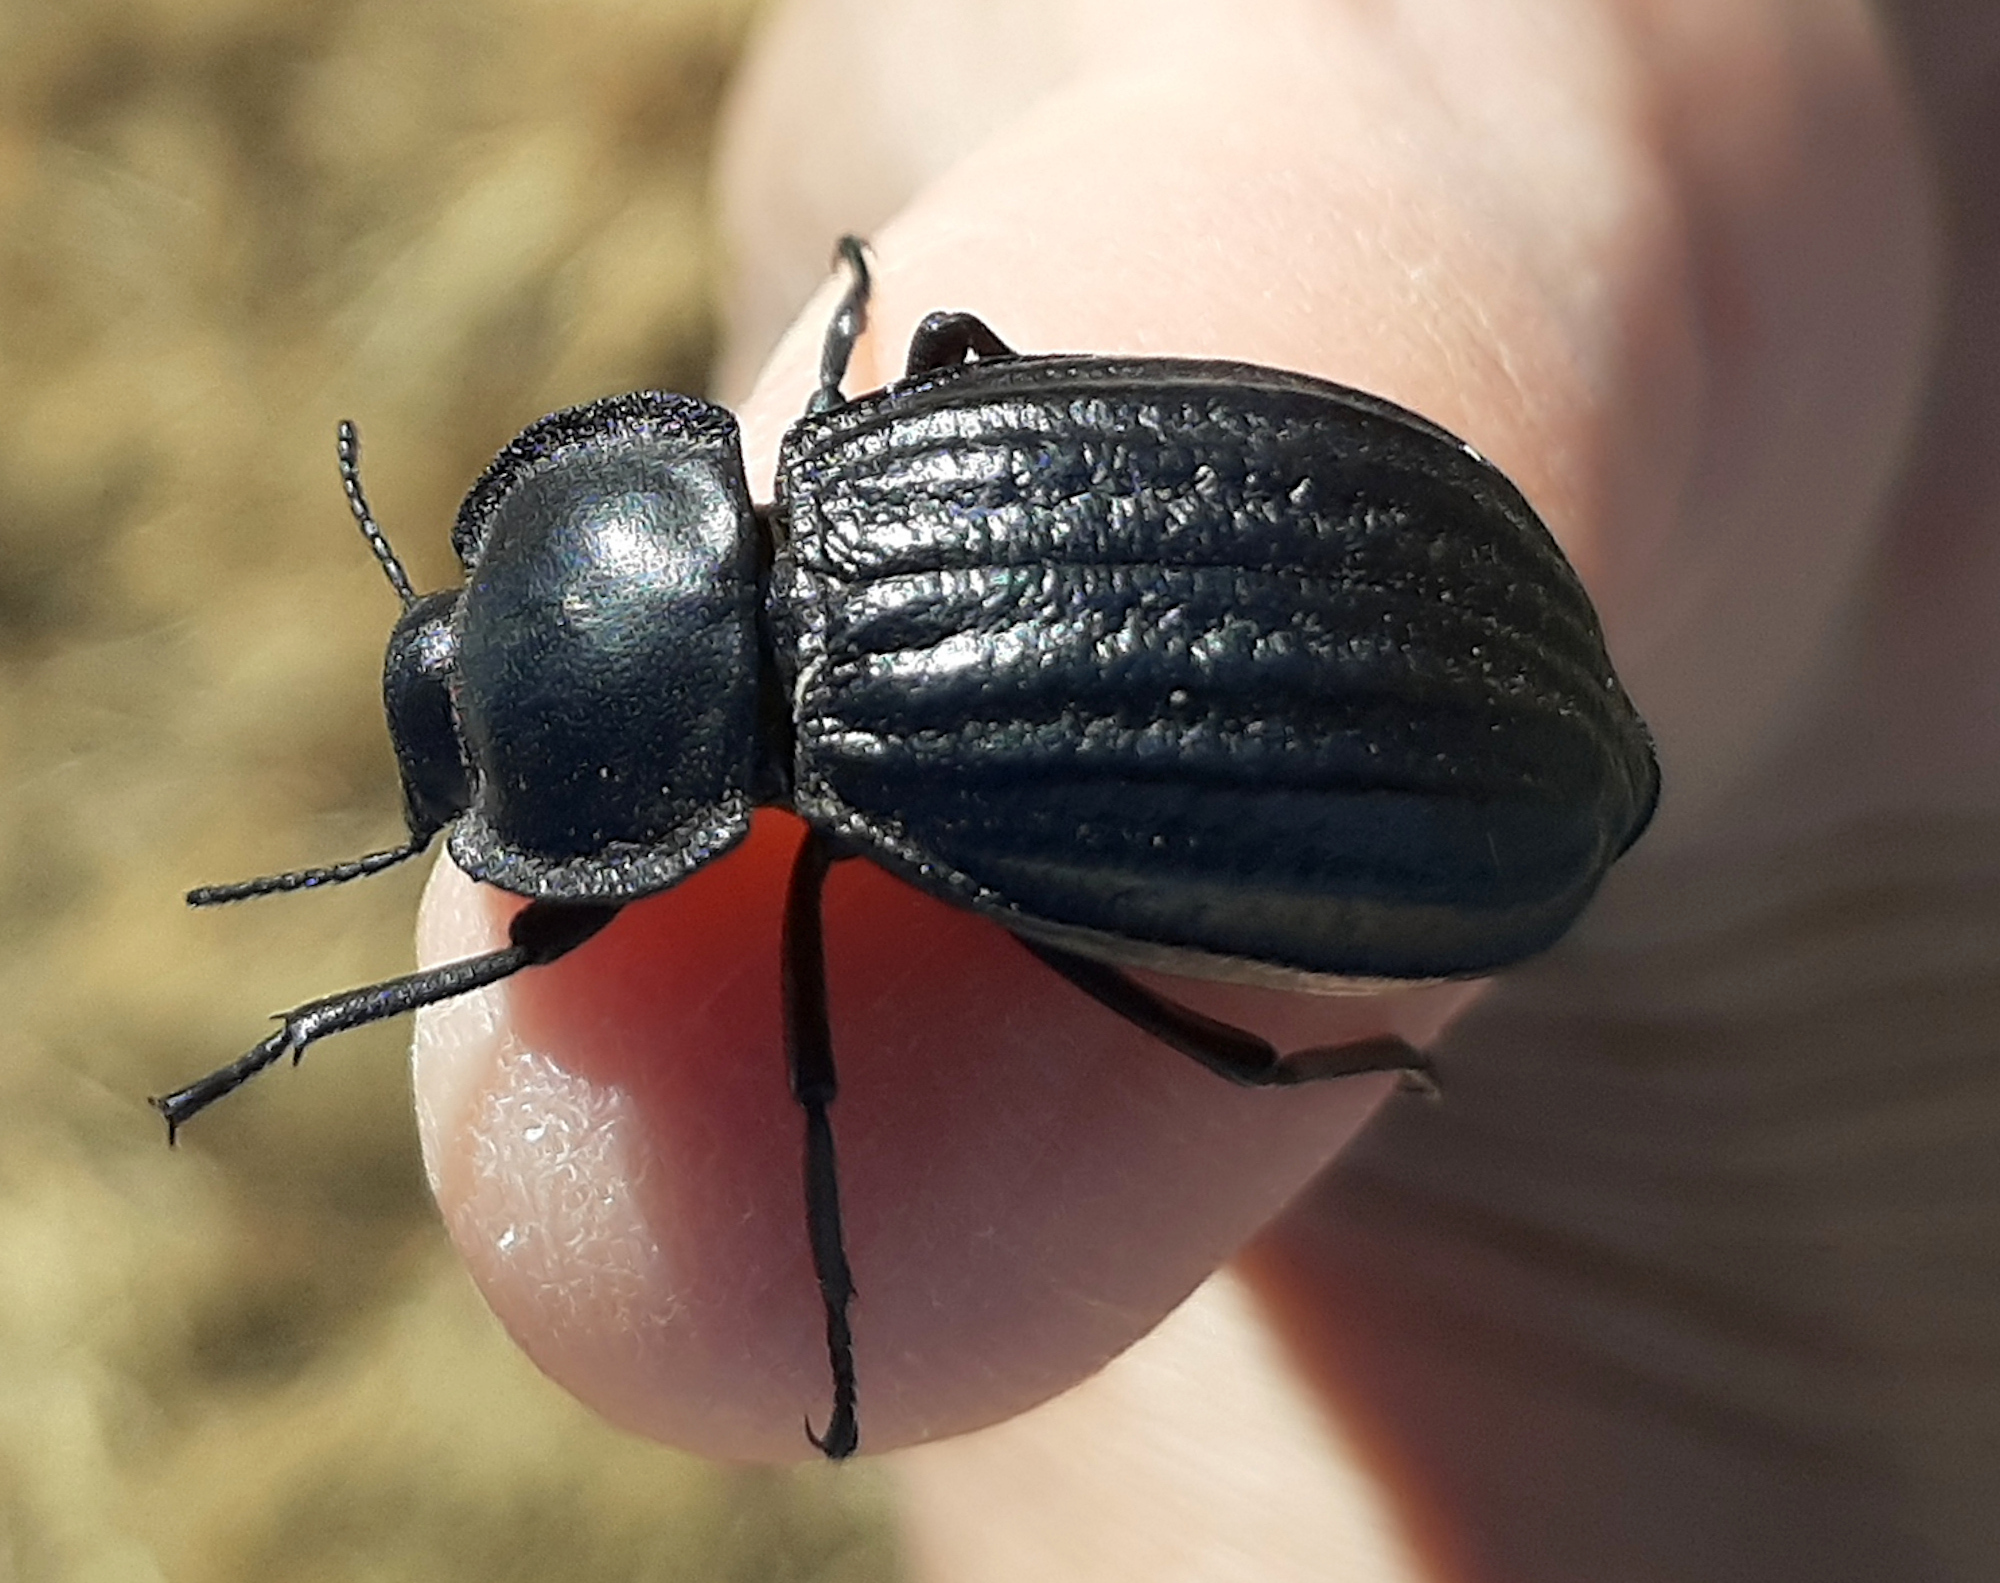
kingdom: Animalia
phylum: Arthropoda
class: Insecta
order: Coleoptera
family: Tenebrionidae
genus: Stenomorpha
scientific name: Stenomorpha corrugans
